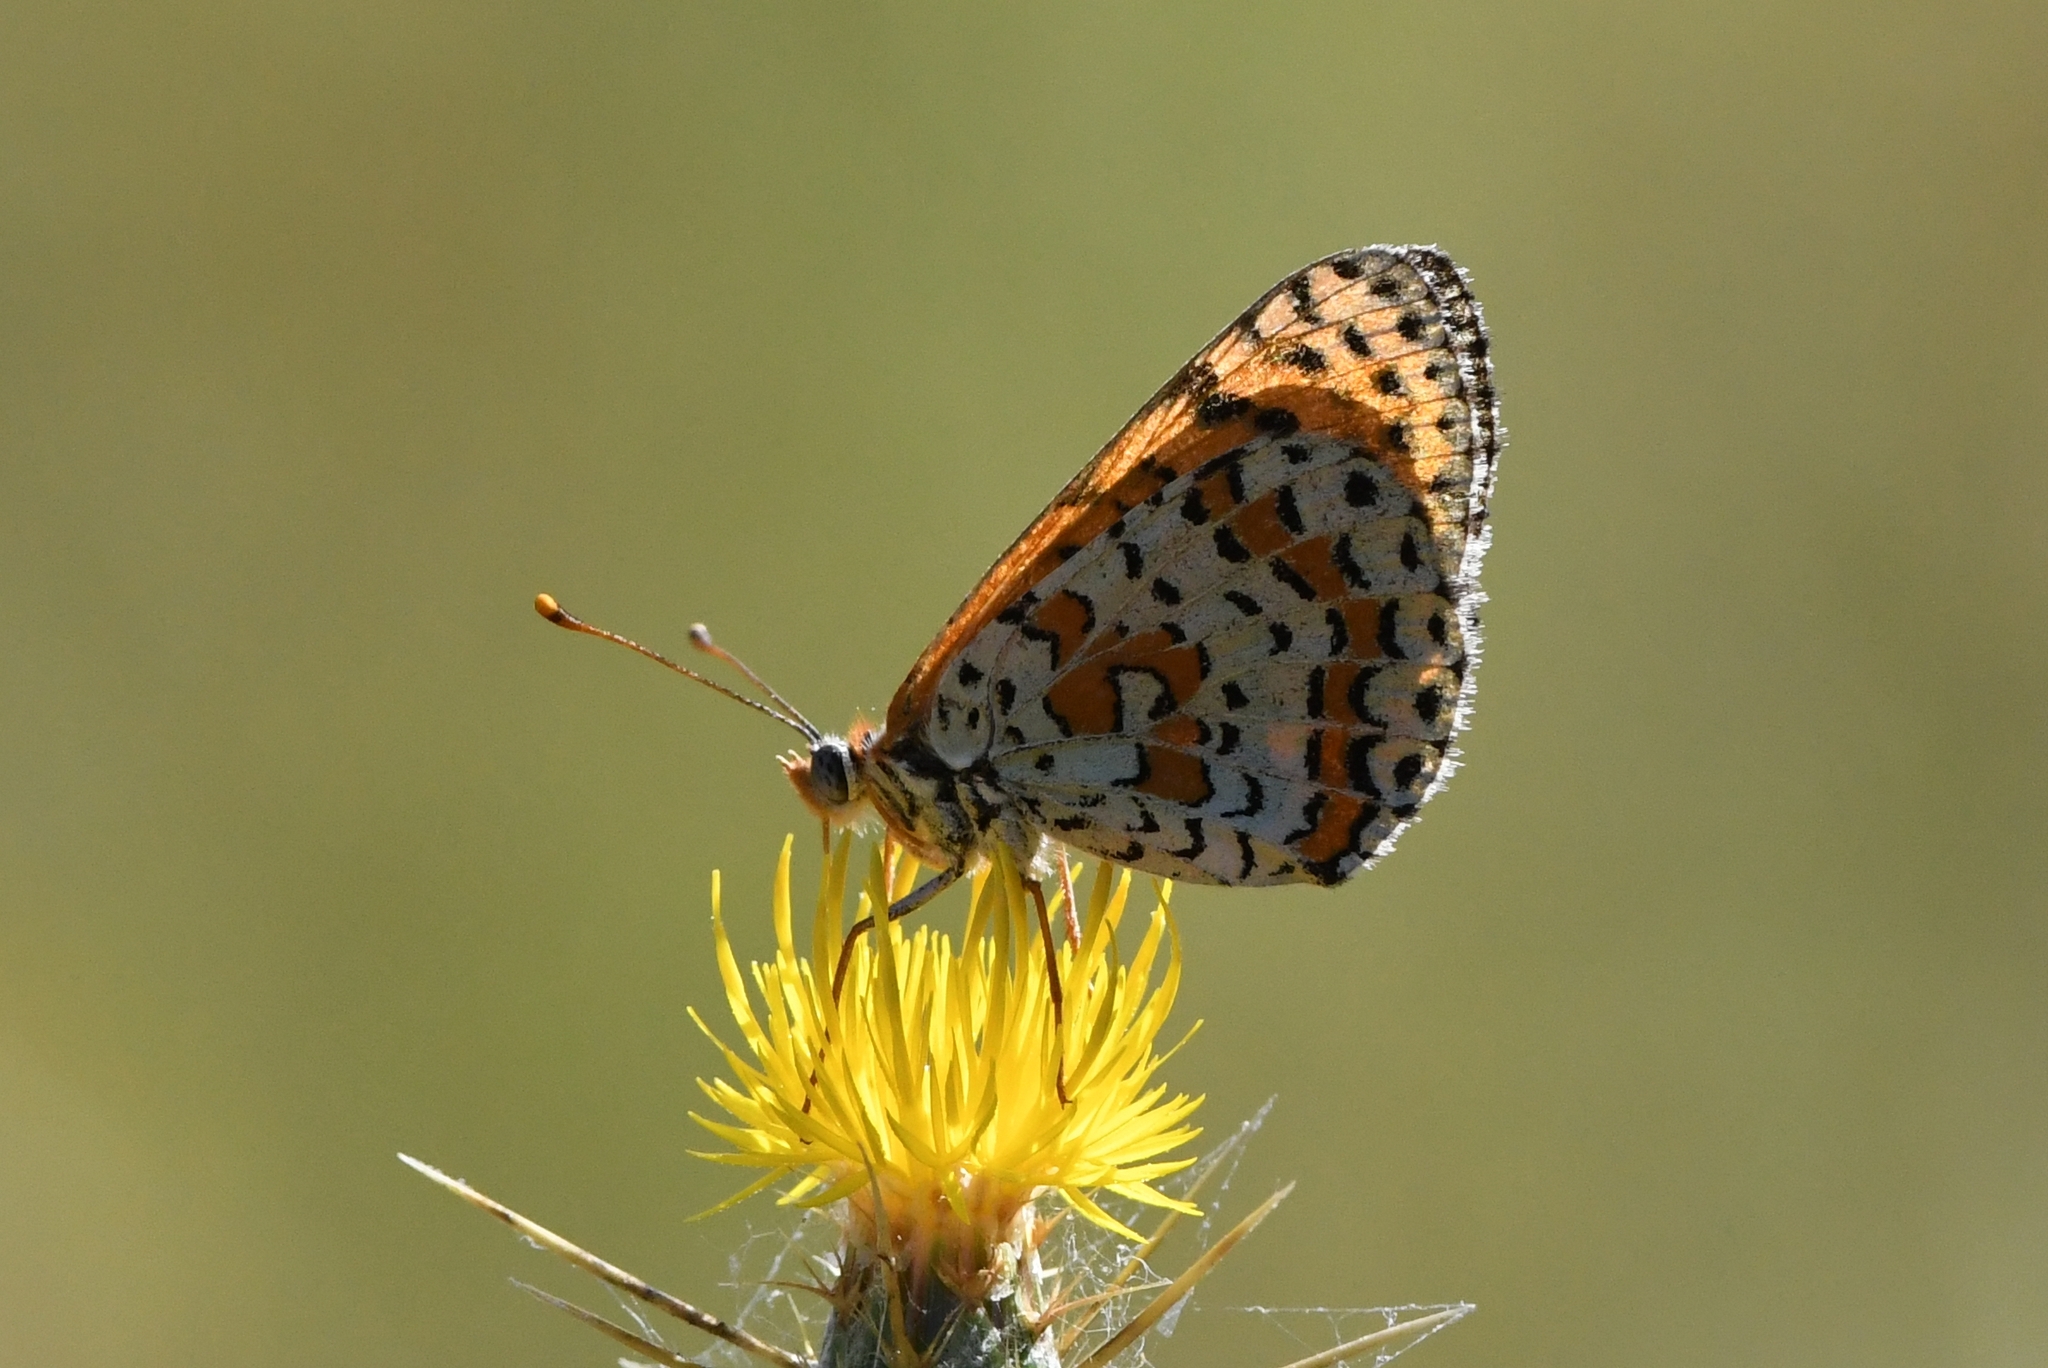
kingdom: Animalia
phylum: Arthropoda
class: Insecta
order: Lepidoptera
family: Nymphalidae
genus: Melitaea
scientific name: Melitaea didyma
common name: Spotted fritillary
